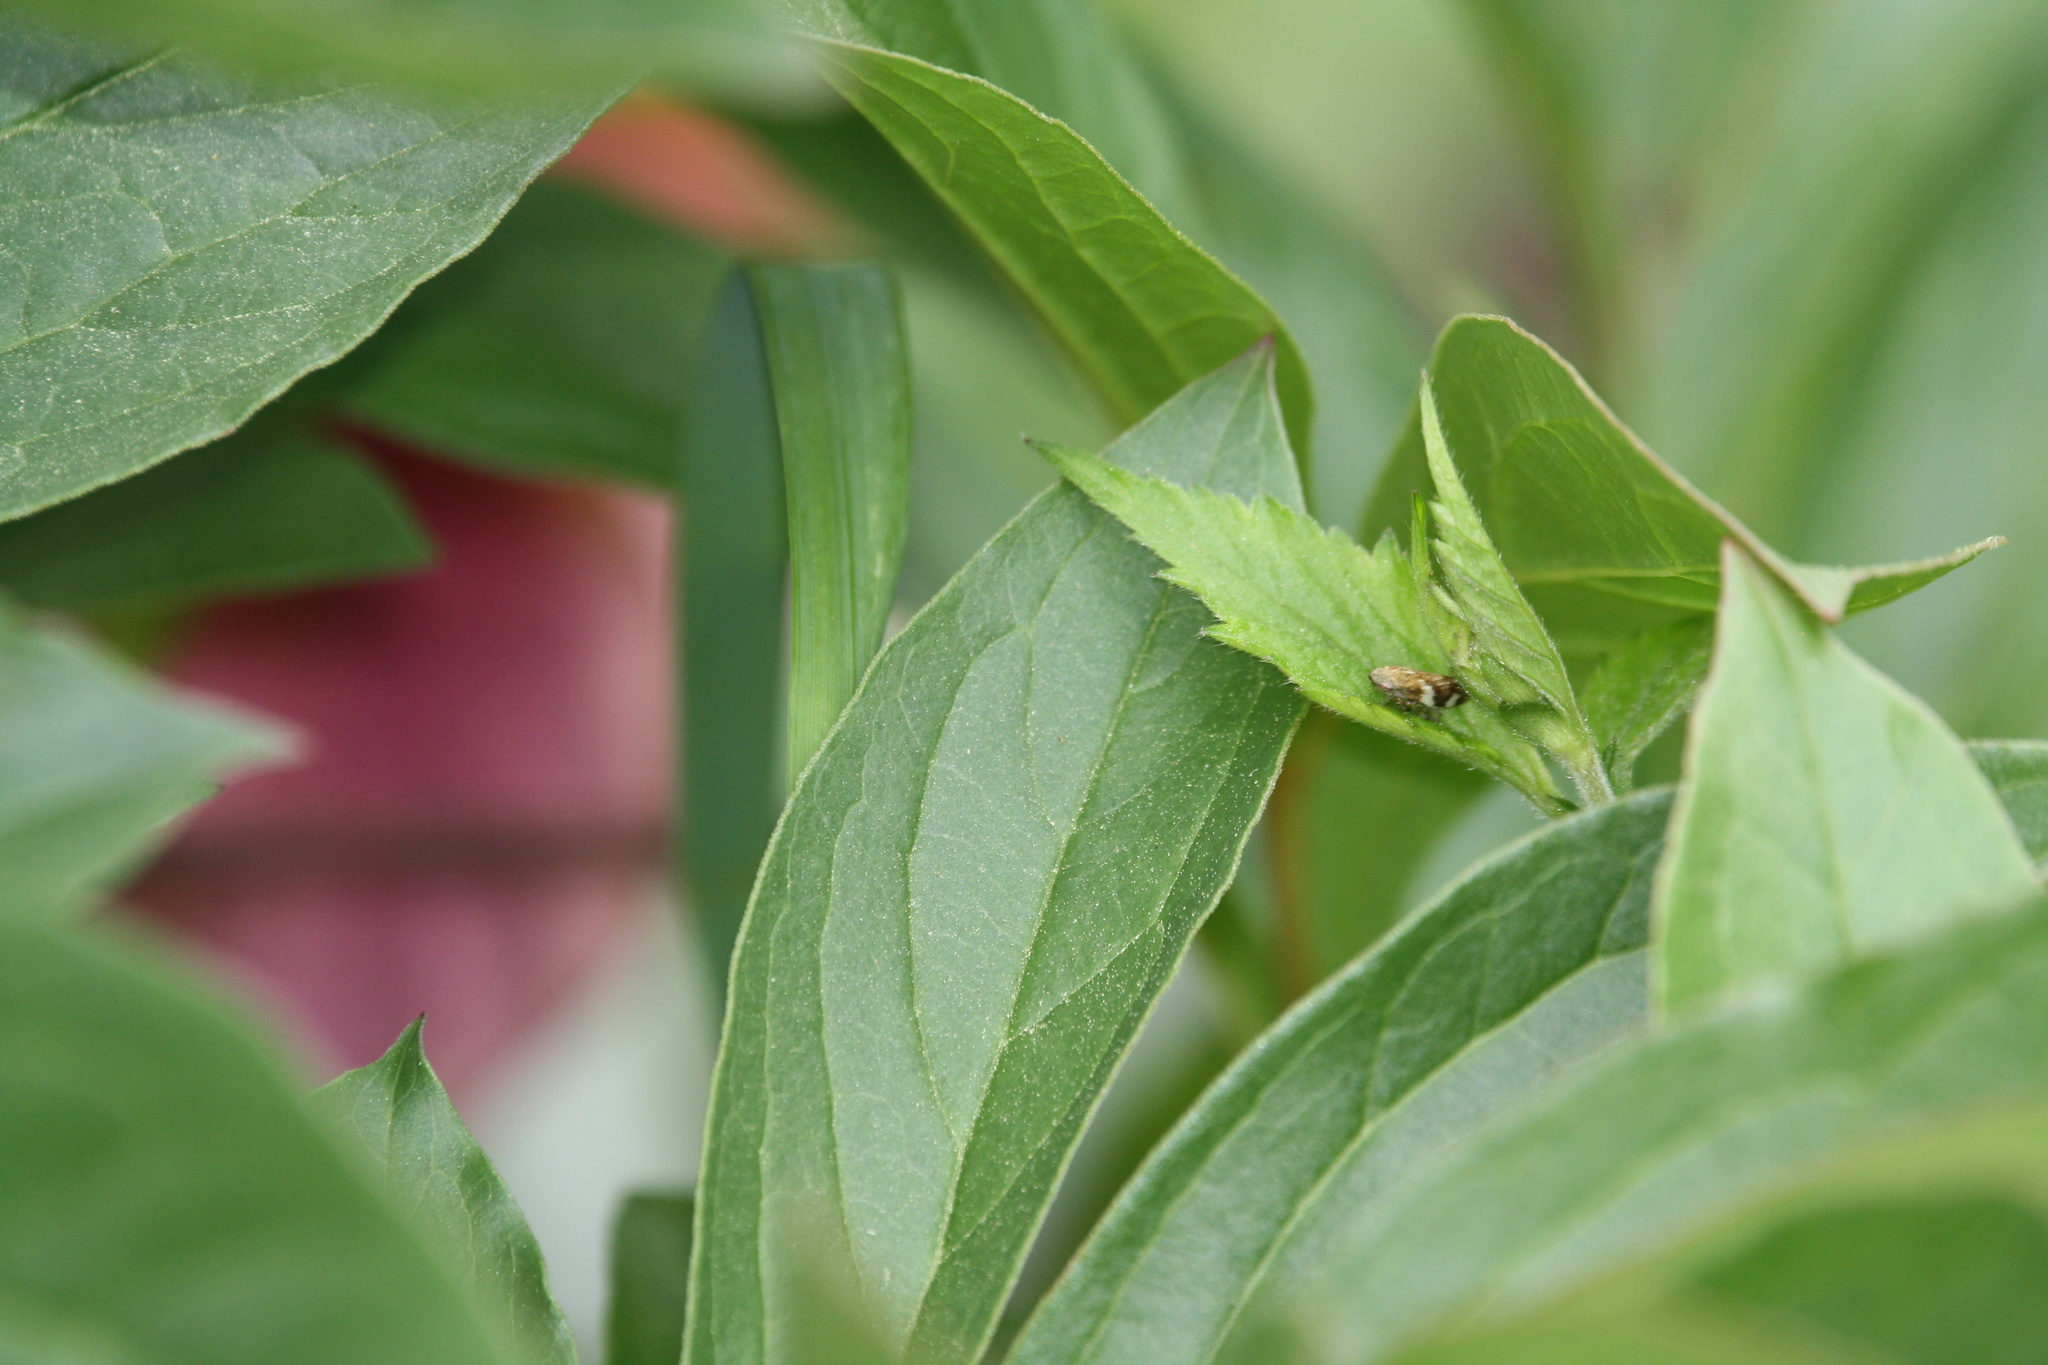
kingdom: Animalia
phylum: Arthropoda
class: Insecta
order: Hemiptera
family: Aphrophoridae
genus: Philaenus
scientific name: Philaenus spumarius
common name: Meadow spittlebug
